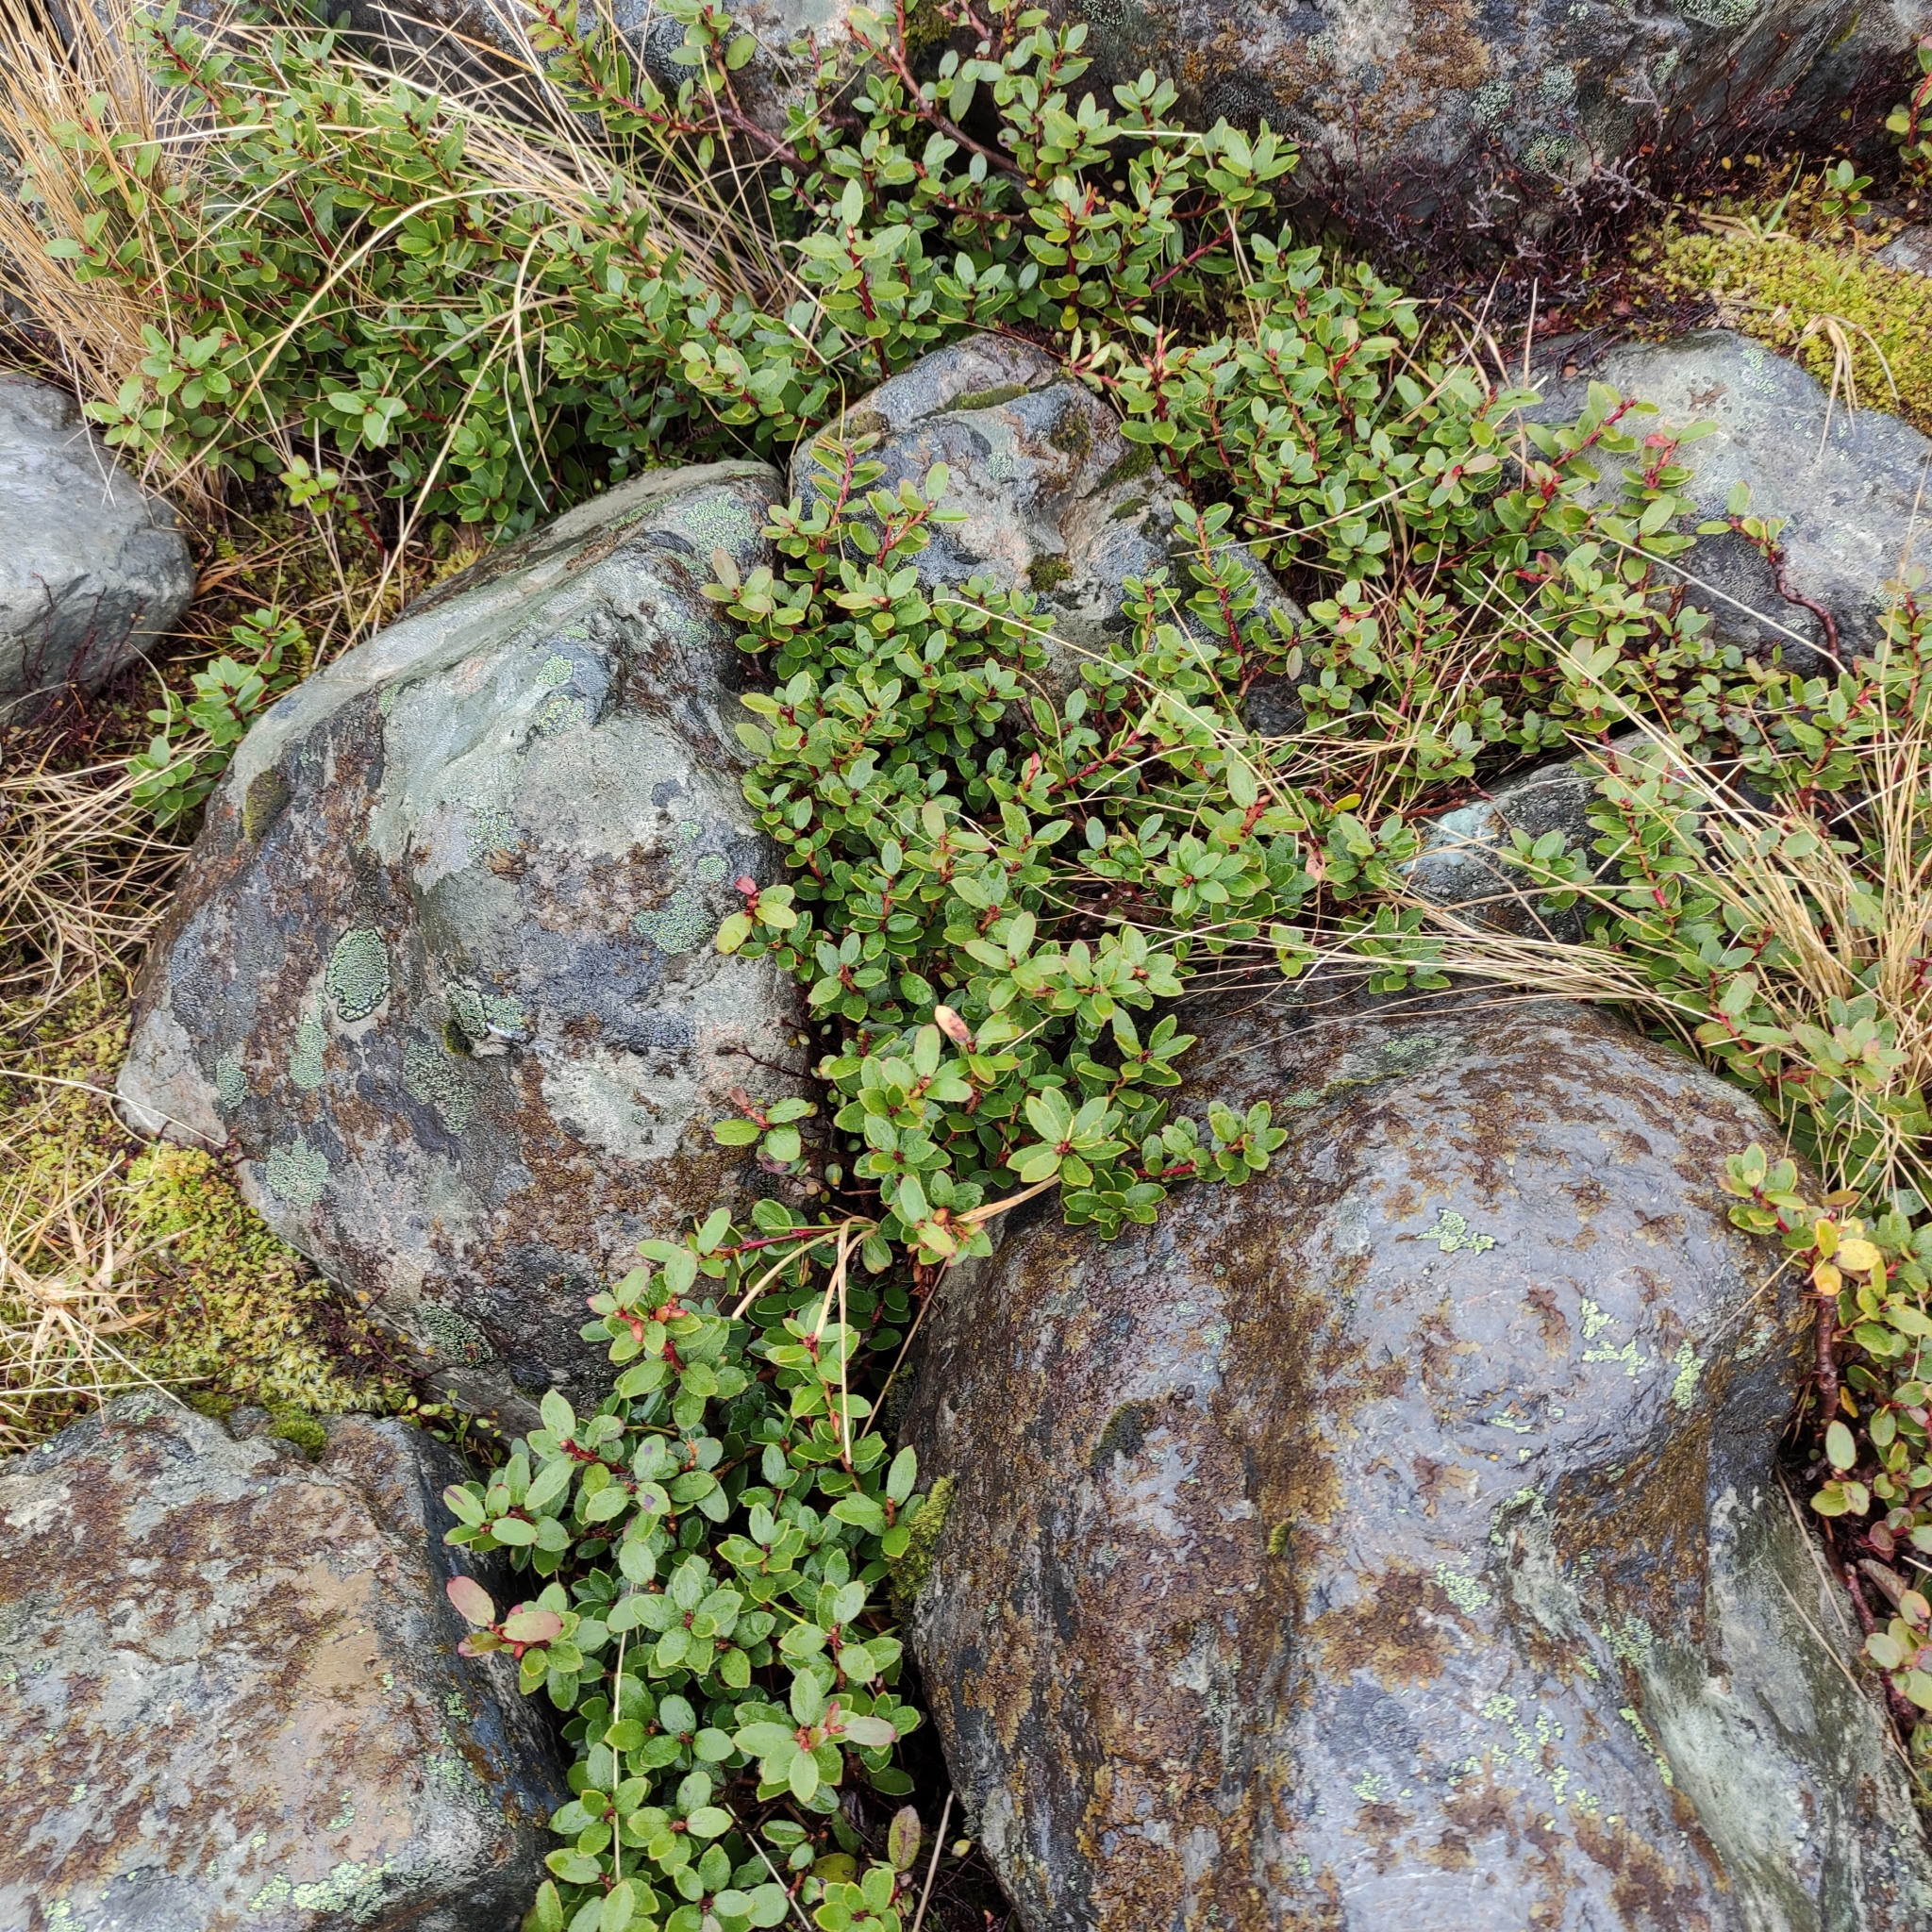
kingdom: Plantae
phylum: Tracheophyta
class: Magnoliopsida
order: Ericales
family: Ericaceae
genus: Gaultheria
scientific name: Gaultheria crassa
